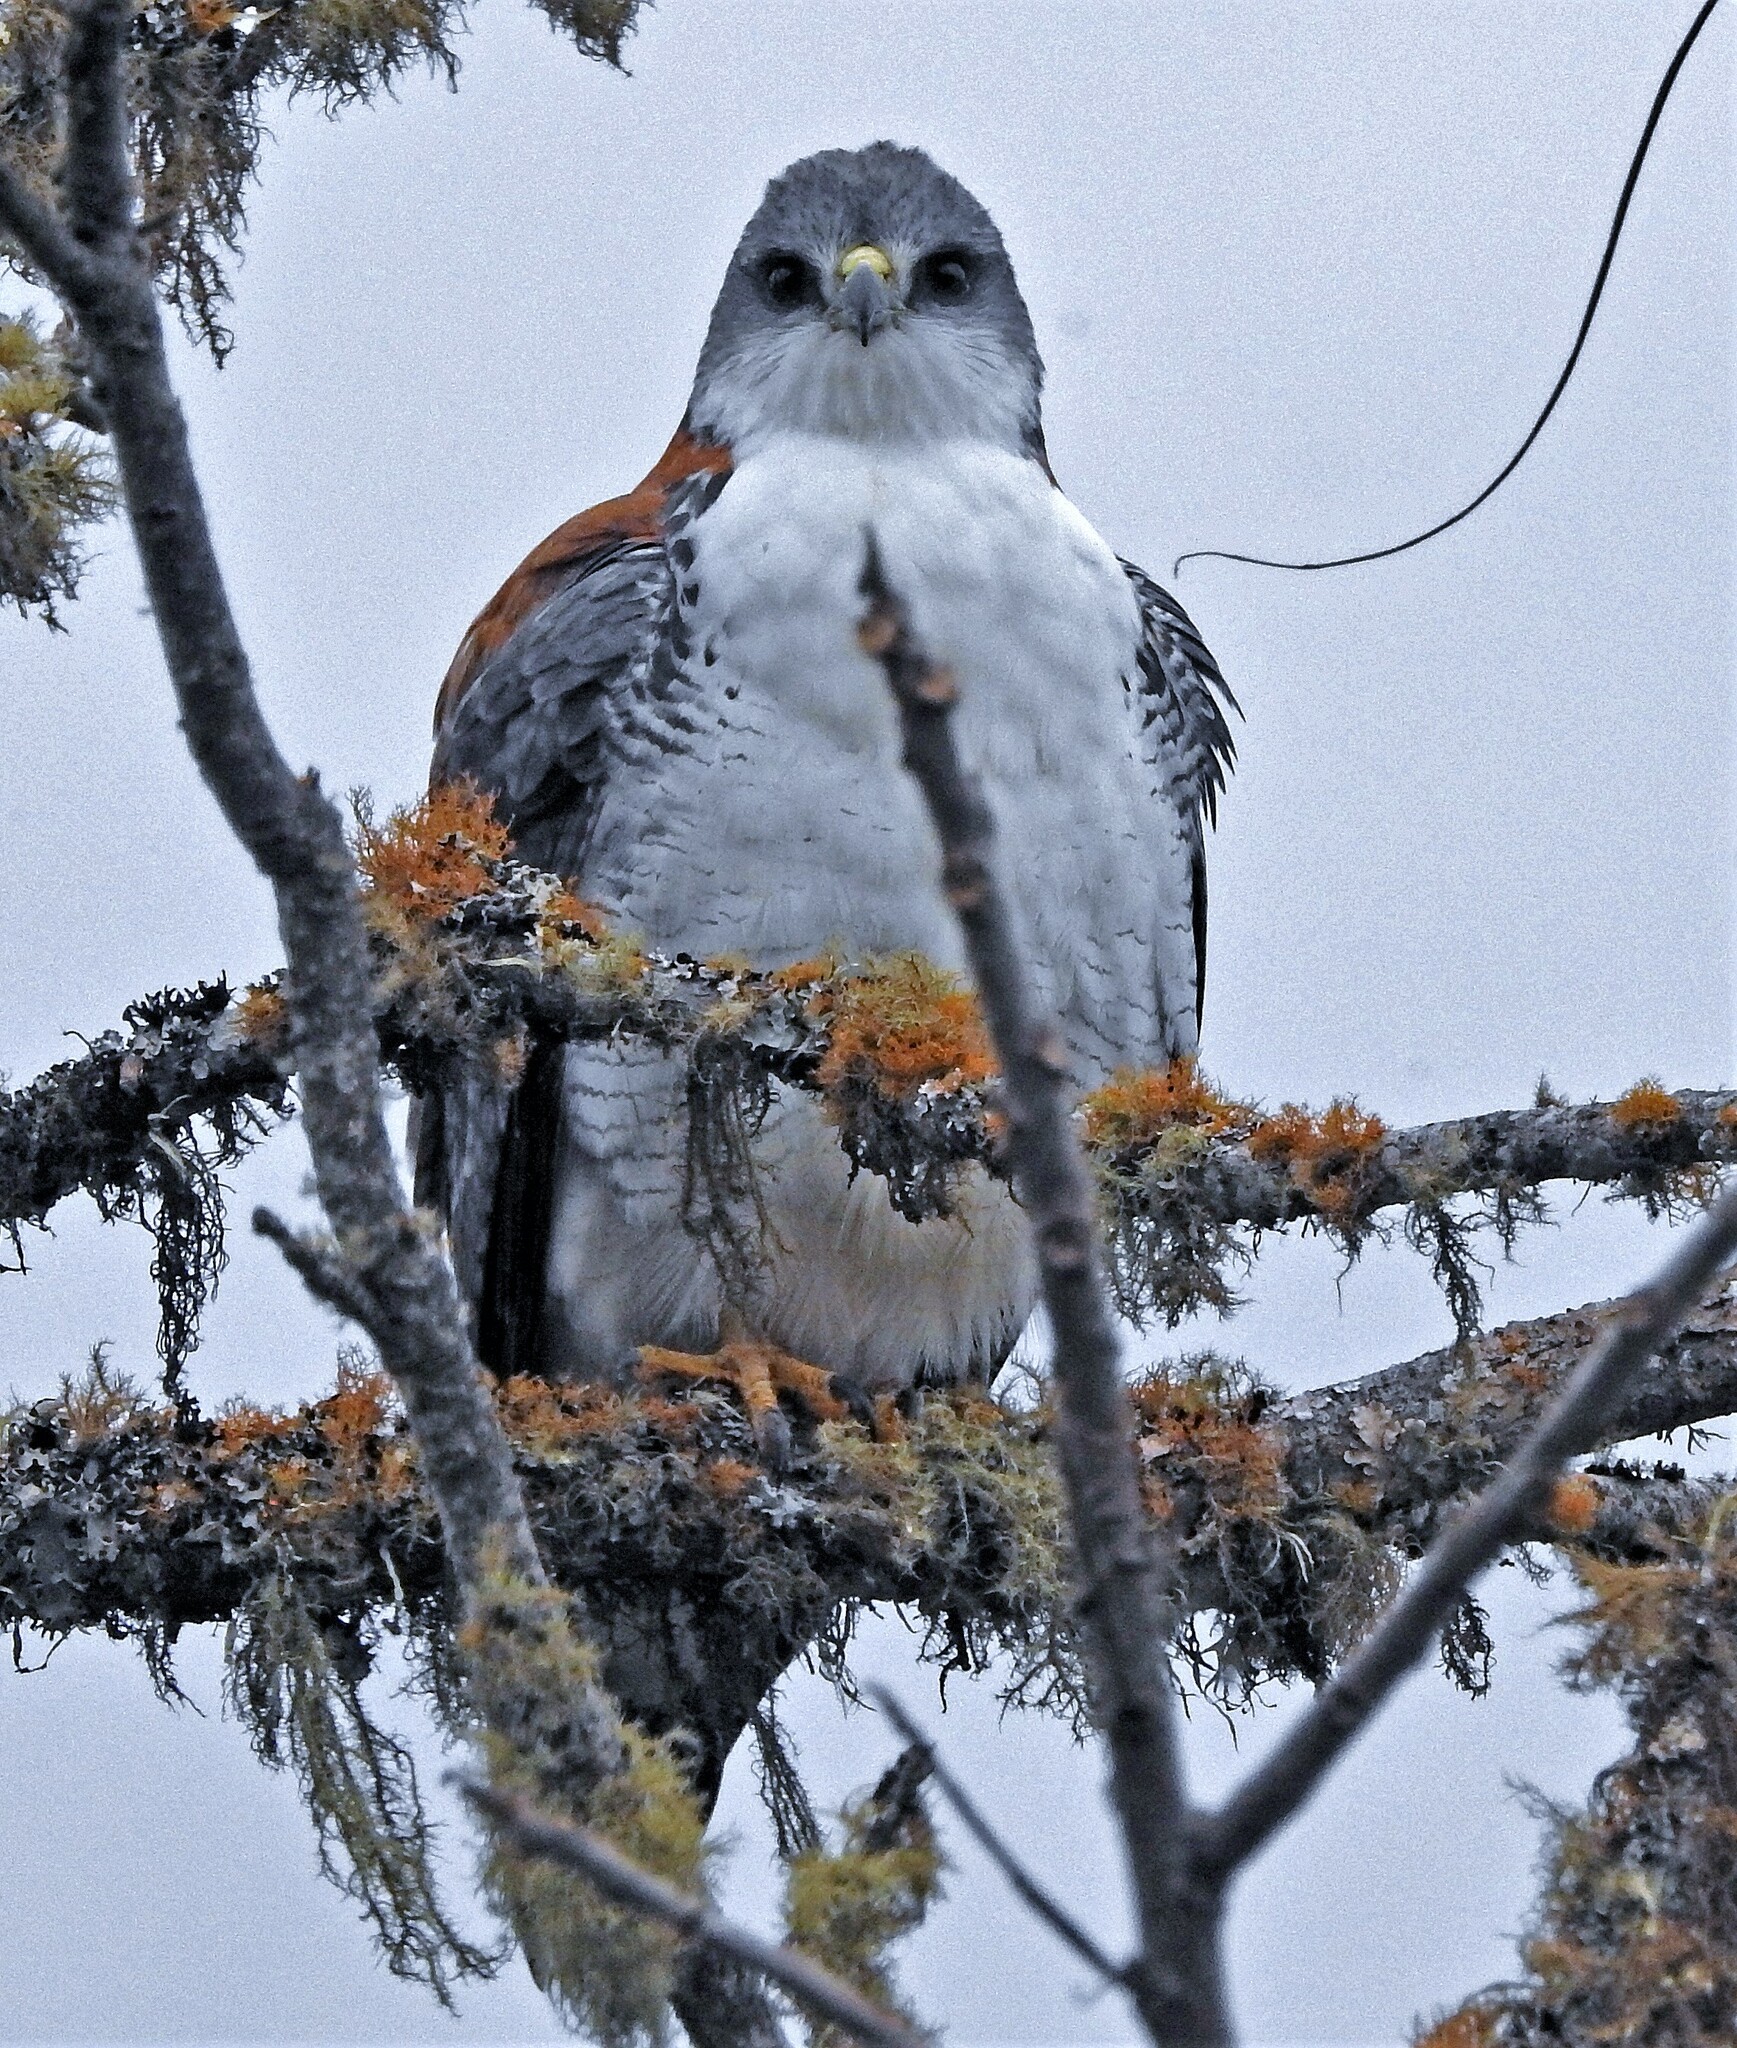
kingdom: Animalia
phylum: Chordata
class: Aves
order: Accipitriformes
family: Accipitridae
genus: Buteo
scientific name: Buteo polyosoma
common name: Variable hawk
